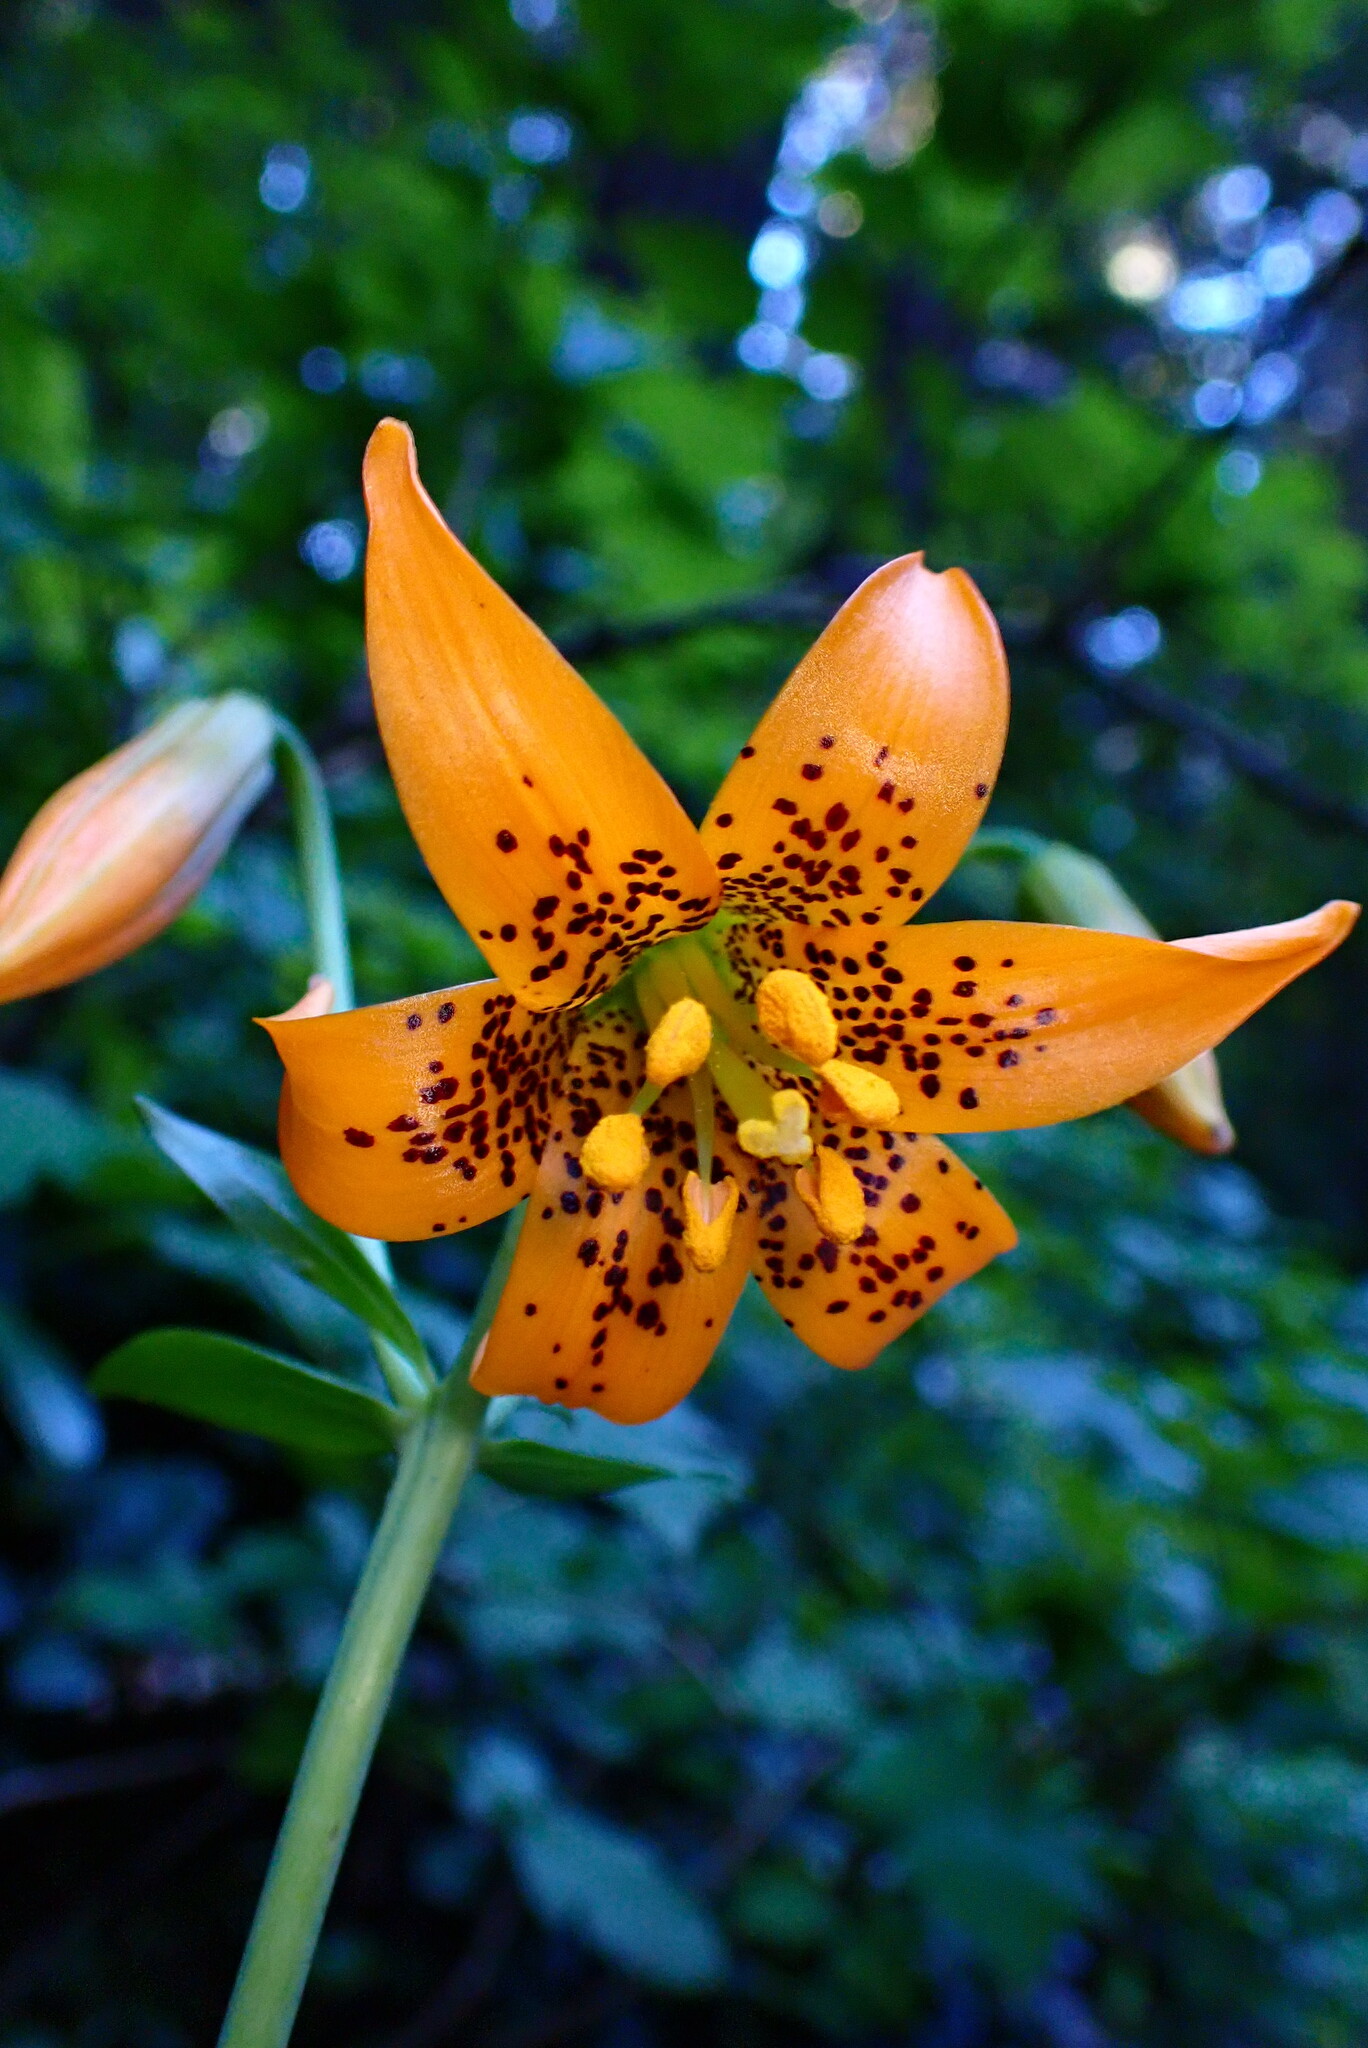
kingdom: Plantae
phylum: Tracheophyta
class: Liliopsida
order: Liliales
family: Liliaceae
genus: Lilium
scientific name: Lilium columbianum
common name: Columbia lily
